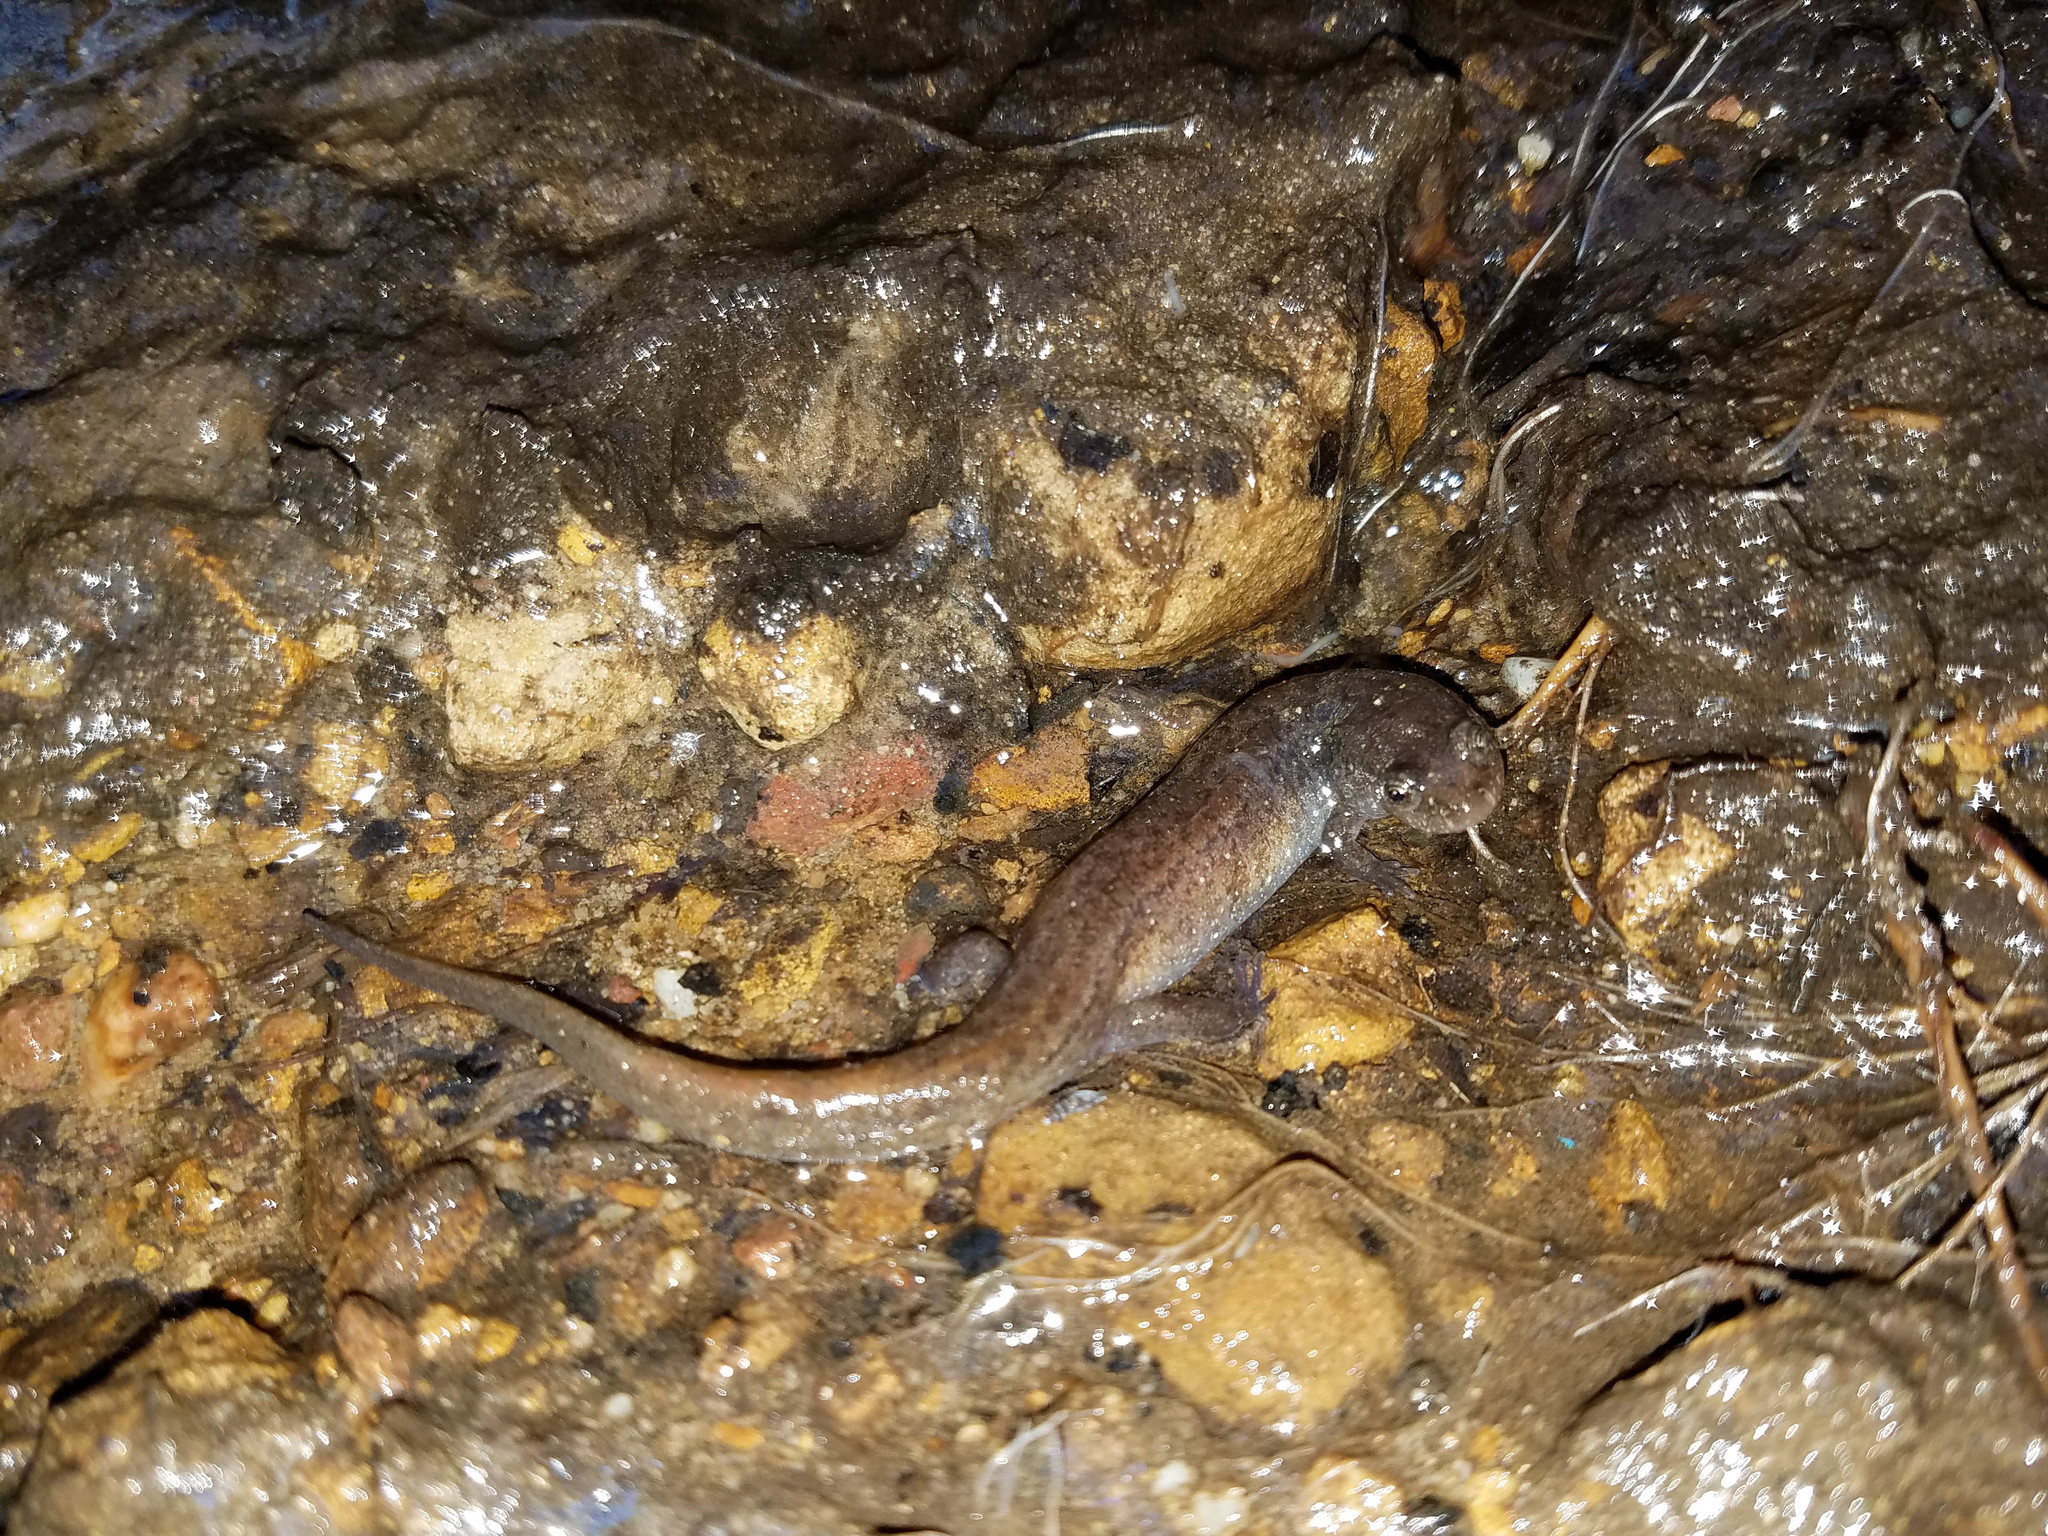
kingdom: Animalia
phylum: Chordata
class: Amphibia
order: Caudata
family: Plethodontidae
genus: Desmognathus
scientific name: Desmognathus fuscus
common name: Northern dusky salamander
